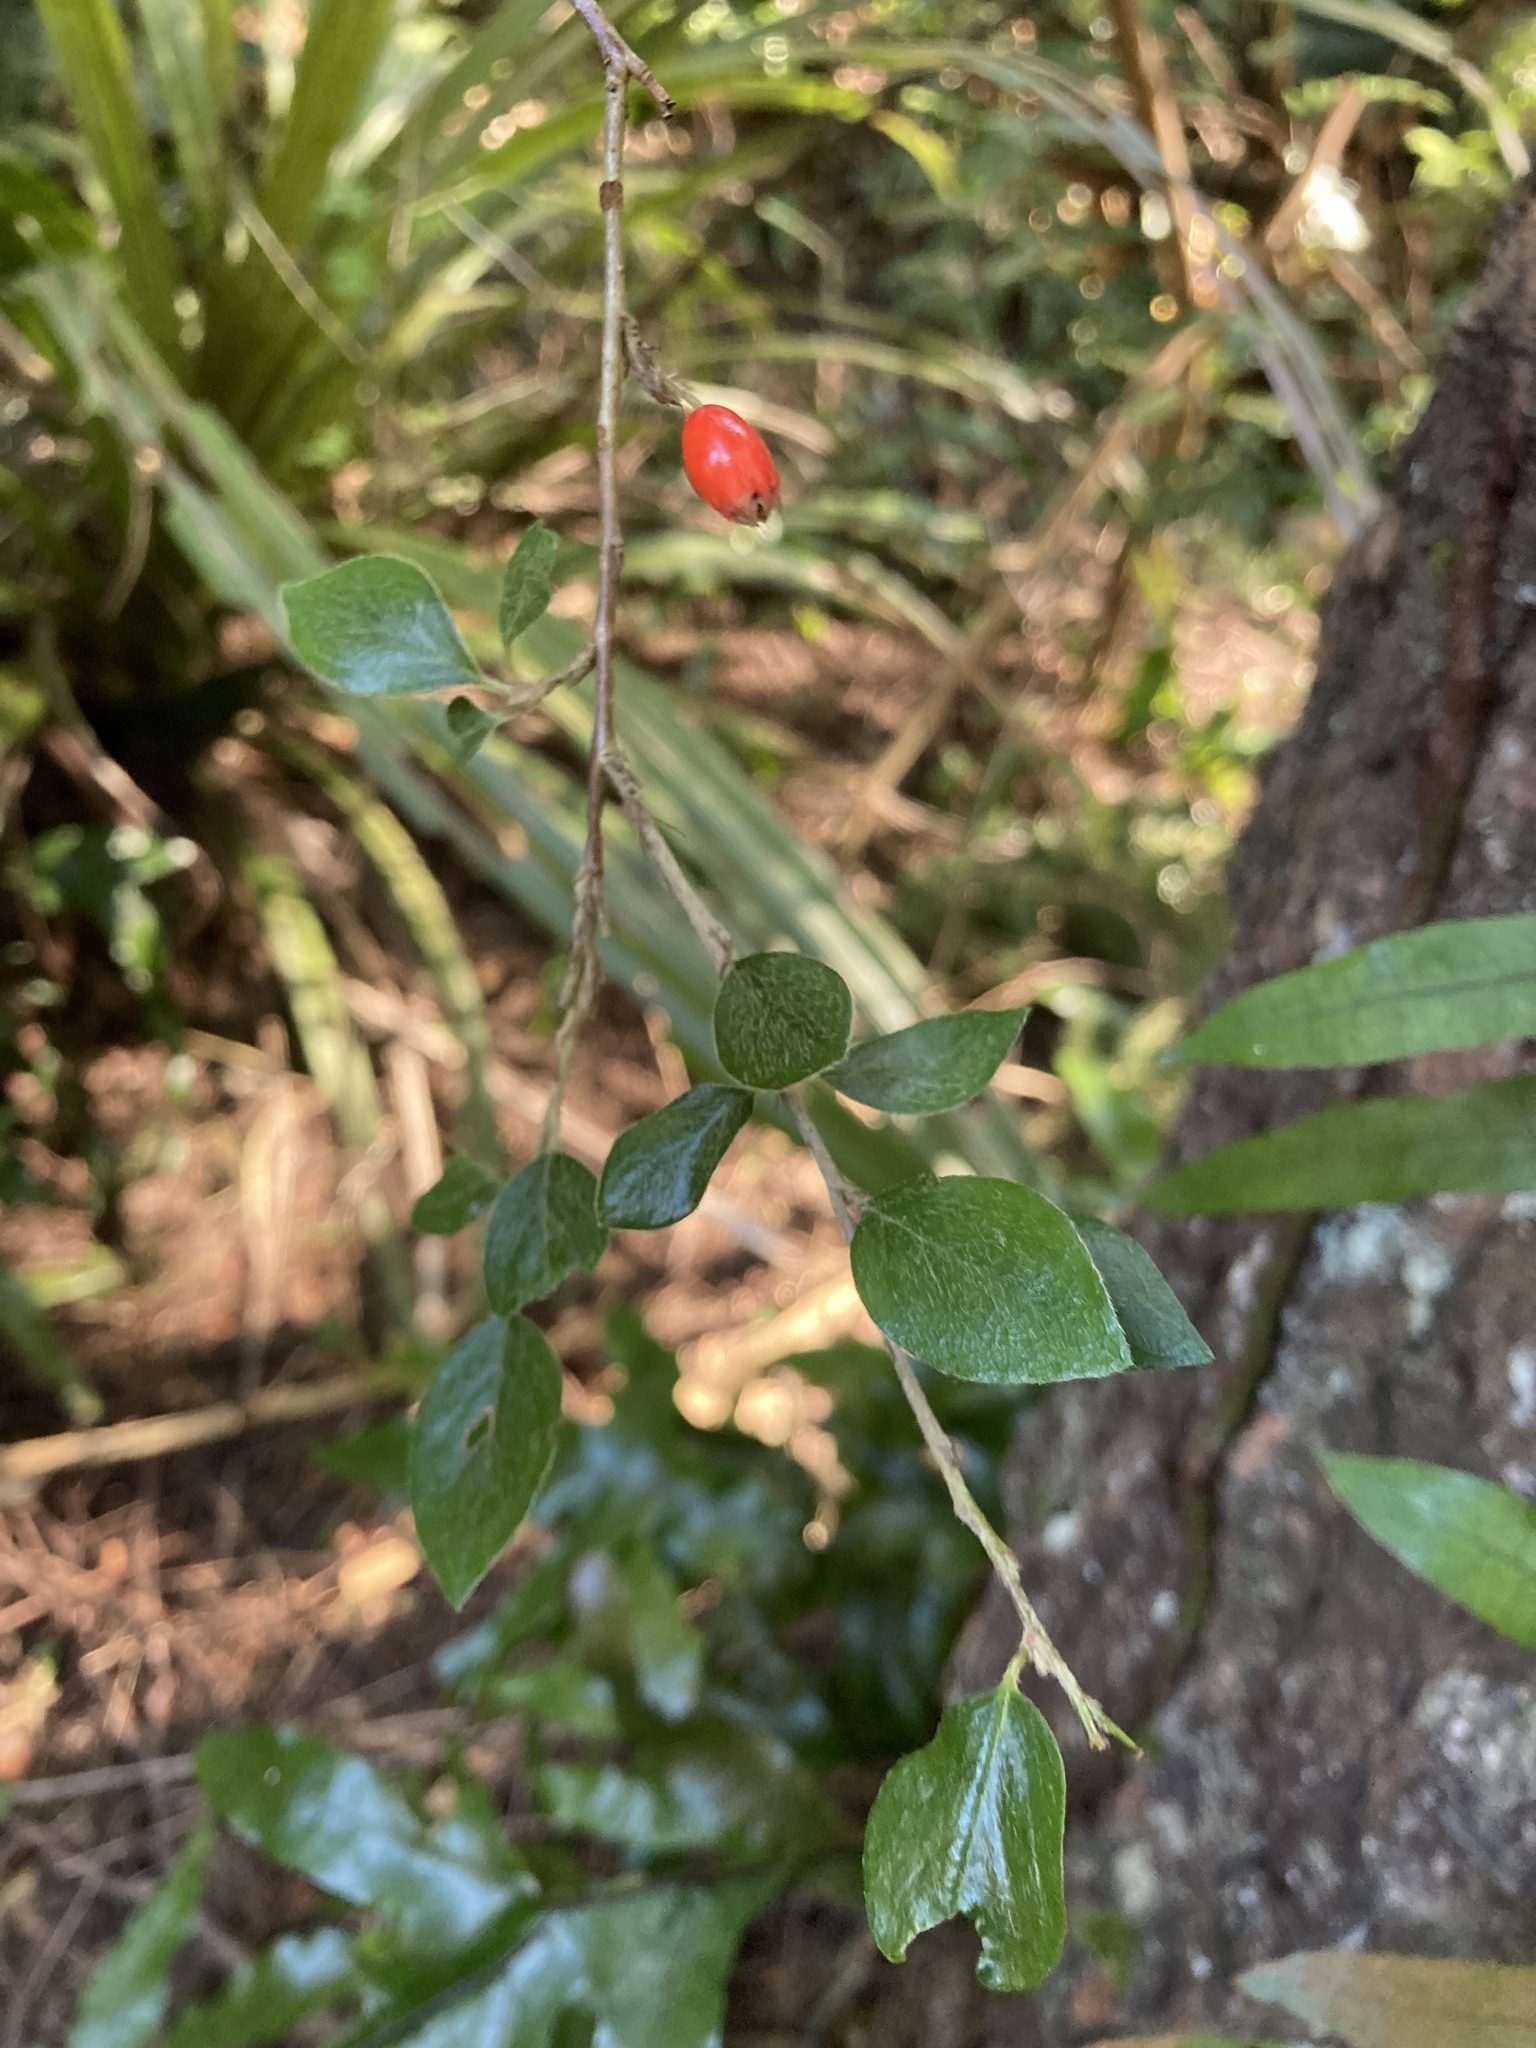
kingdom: Plantae
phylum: Tracheophyta
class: Magnoliopsida
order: Rosales
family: Rosaceae
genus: Cotoneaster
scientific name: Cotoneaster simonsii
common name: Himalayan cotoneaster
